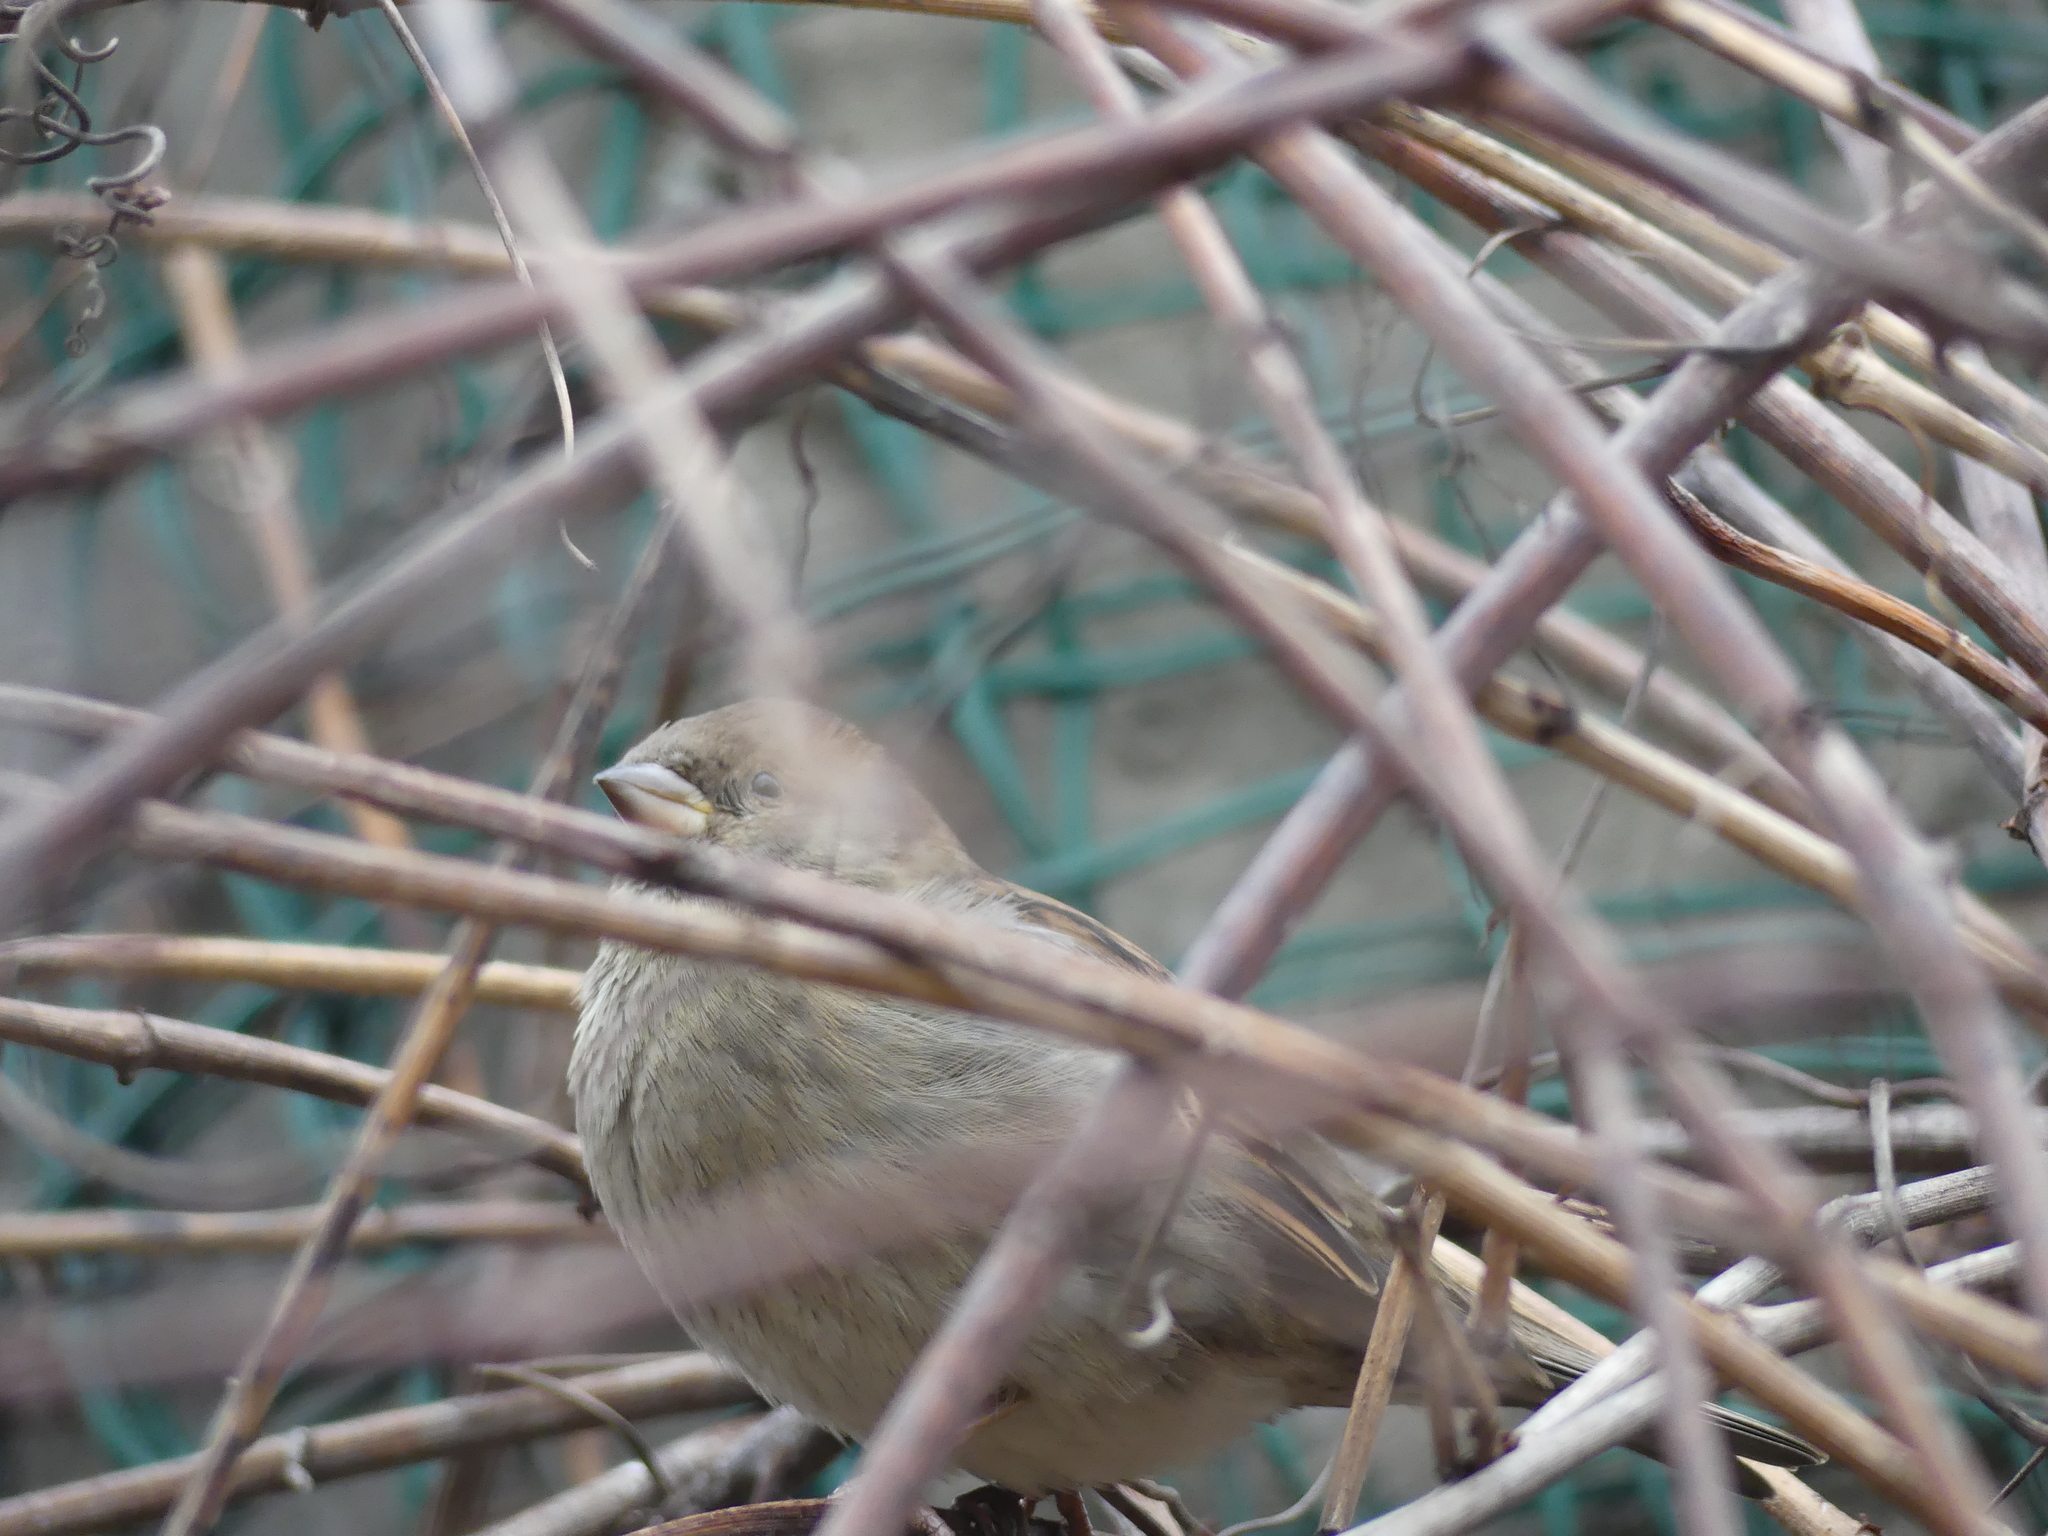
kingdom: Animalia
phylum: Chordata
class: Aves
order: Passeriformes
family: Passeridae
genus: Passer
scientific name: Passer domesticus
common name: House sparrow
